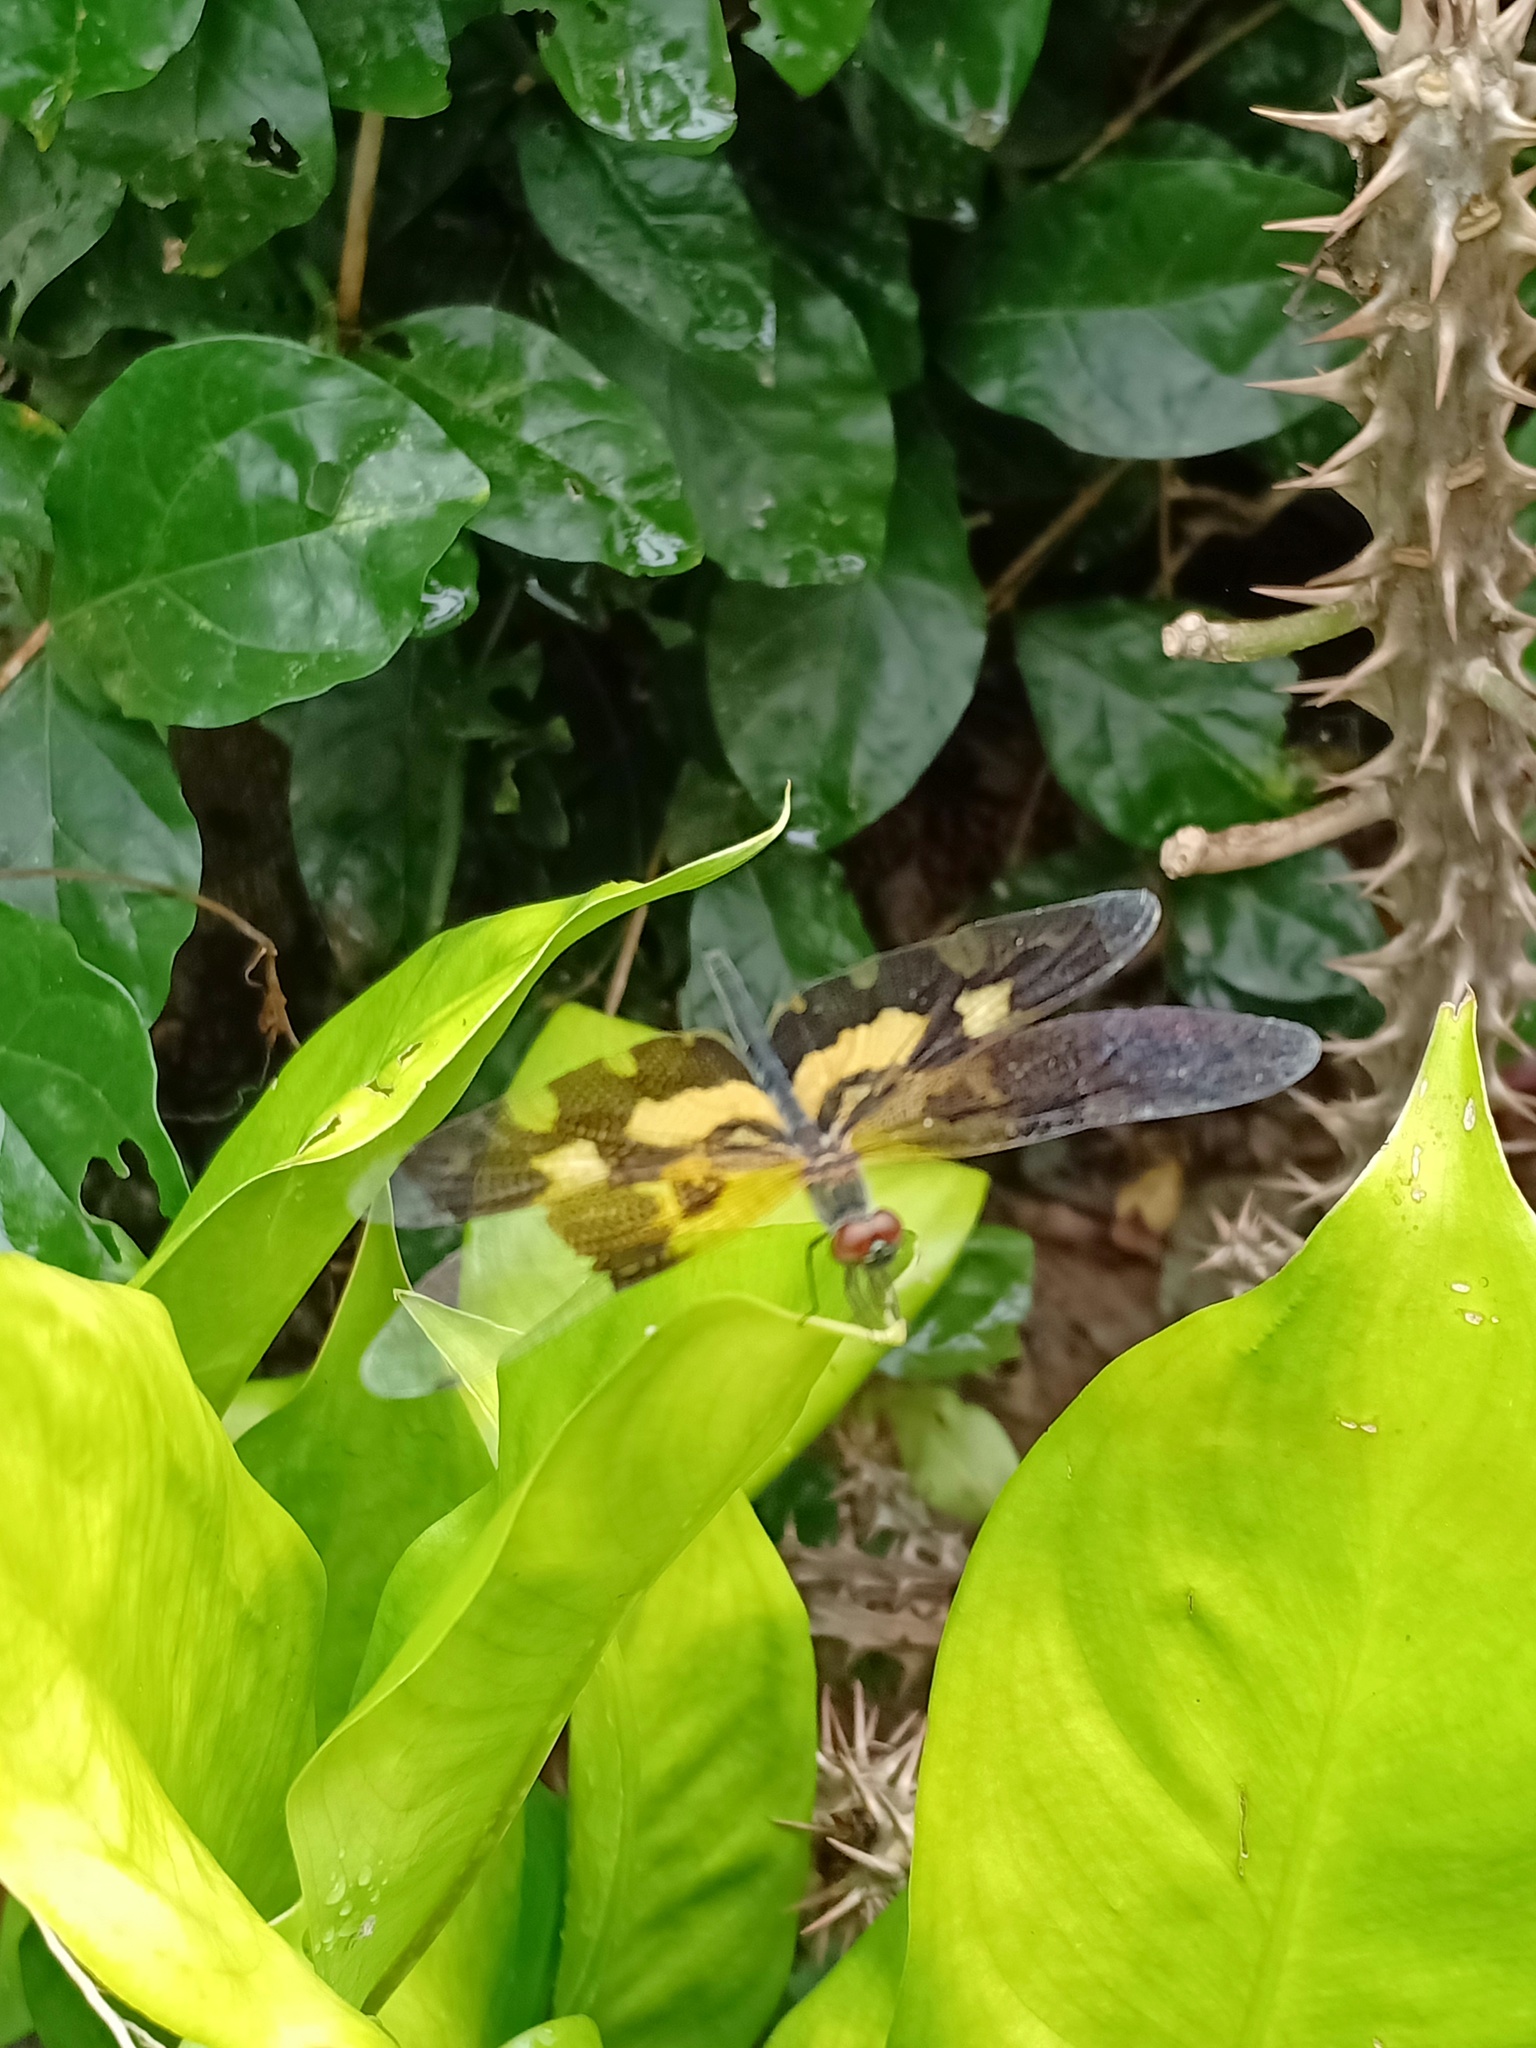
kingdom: Animalia
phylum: Arthropoda
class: Insecta
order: Odonata
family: Libellulidae
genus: Rhyothemis
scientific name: Rhyothemis variegata
